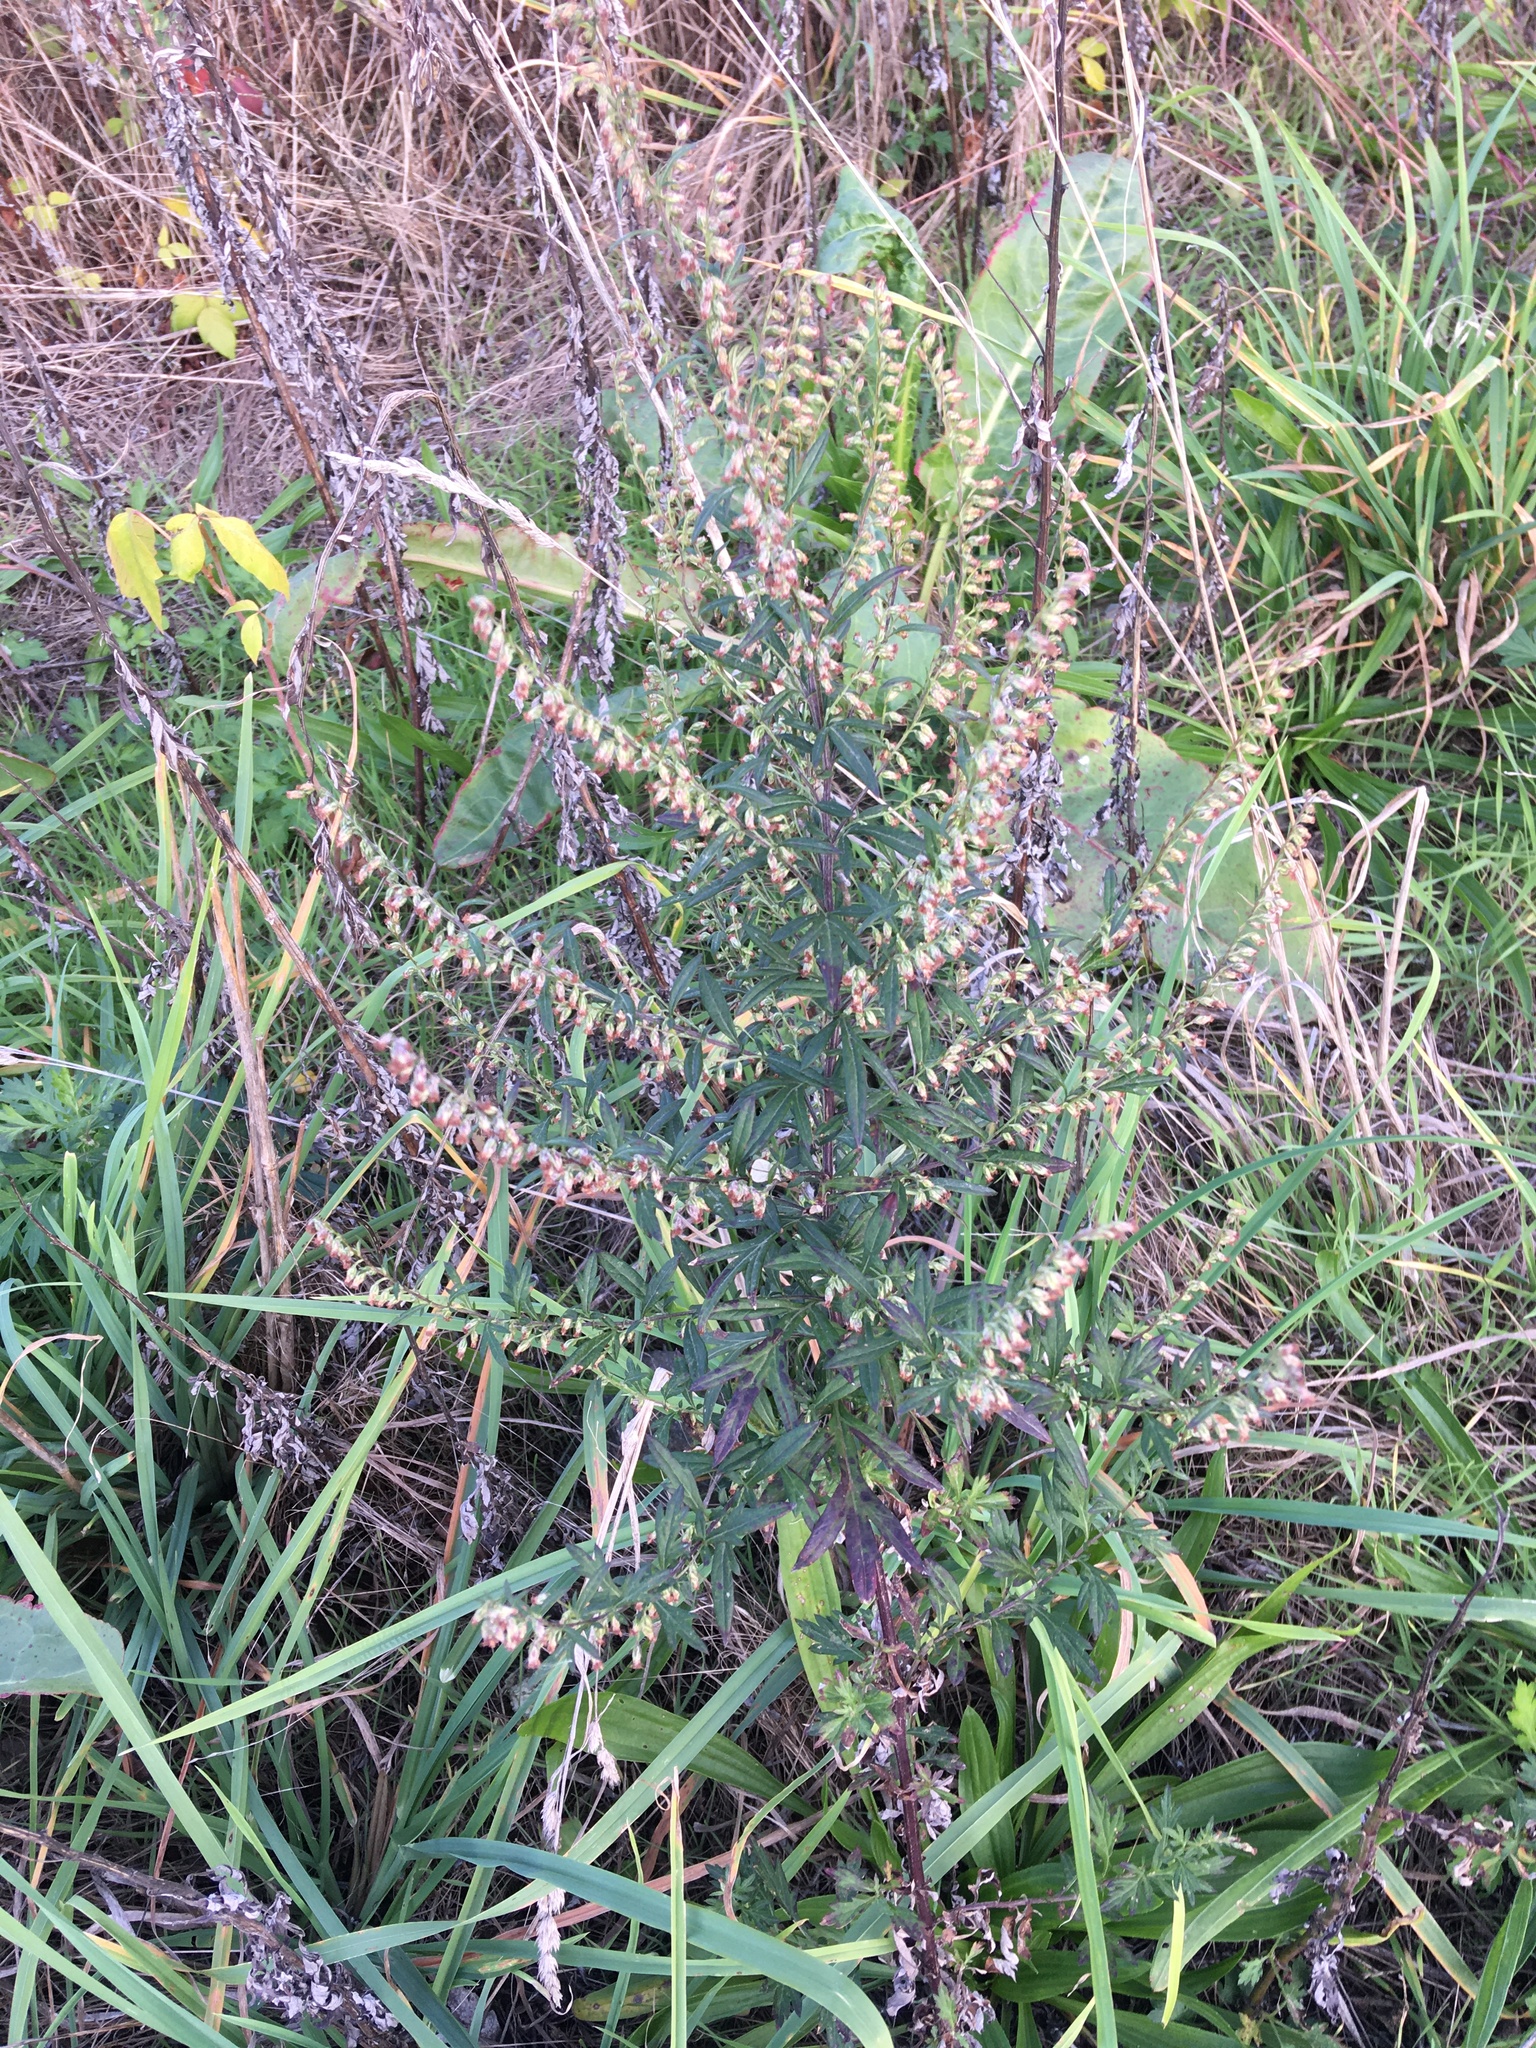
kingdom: Plantae
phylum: Tracheophyta
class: Magnoliopsida
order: Asterales
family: Asteraceae
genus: Artemisia
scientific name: Artemisia vulgaris
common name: Mugwort
